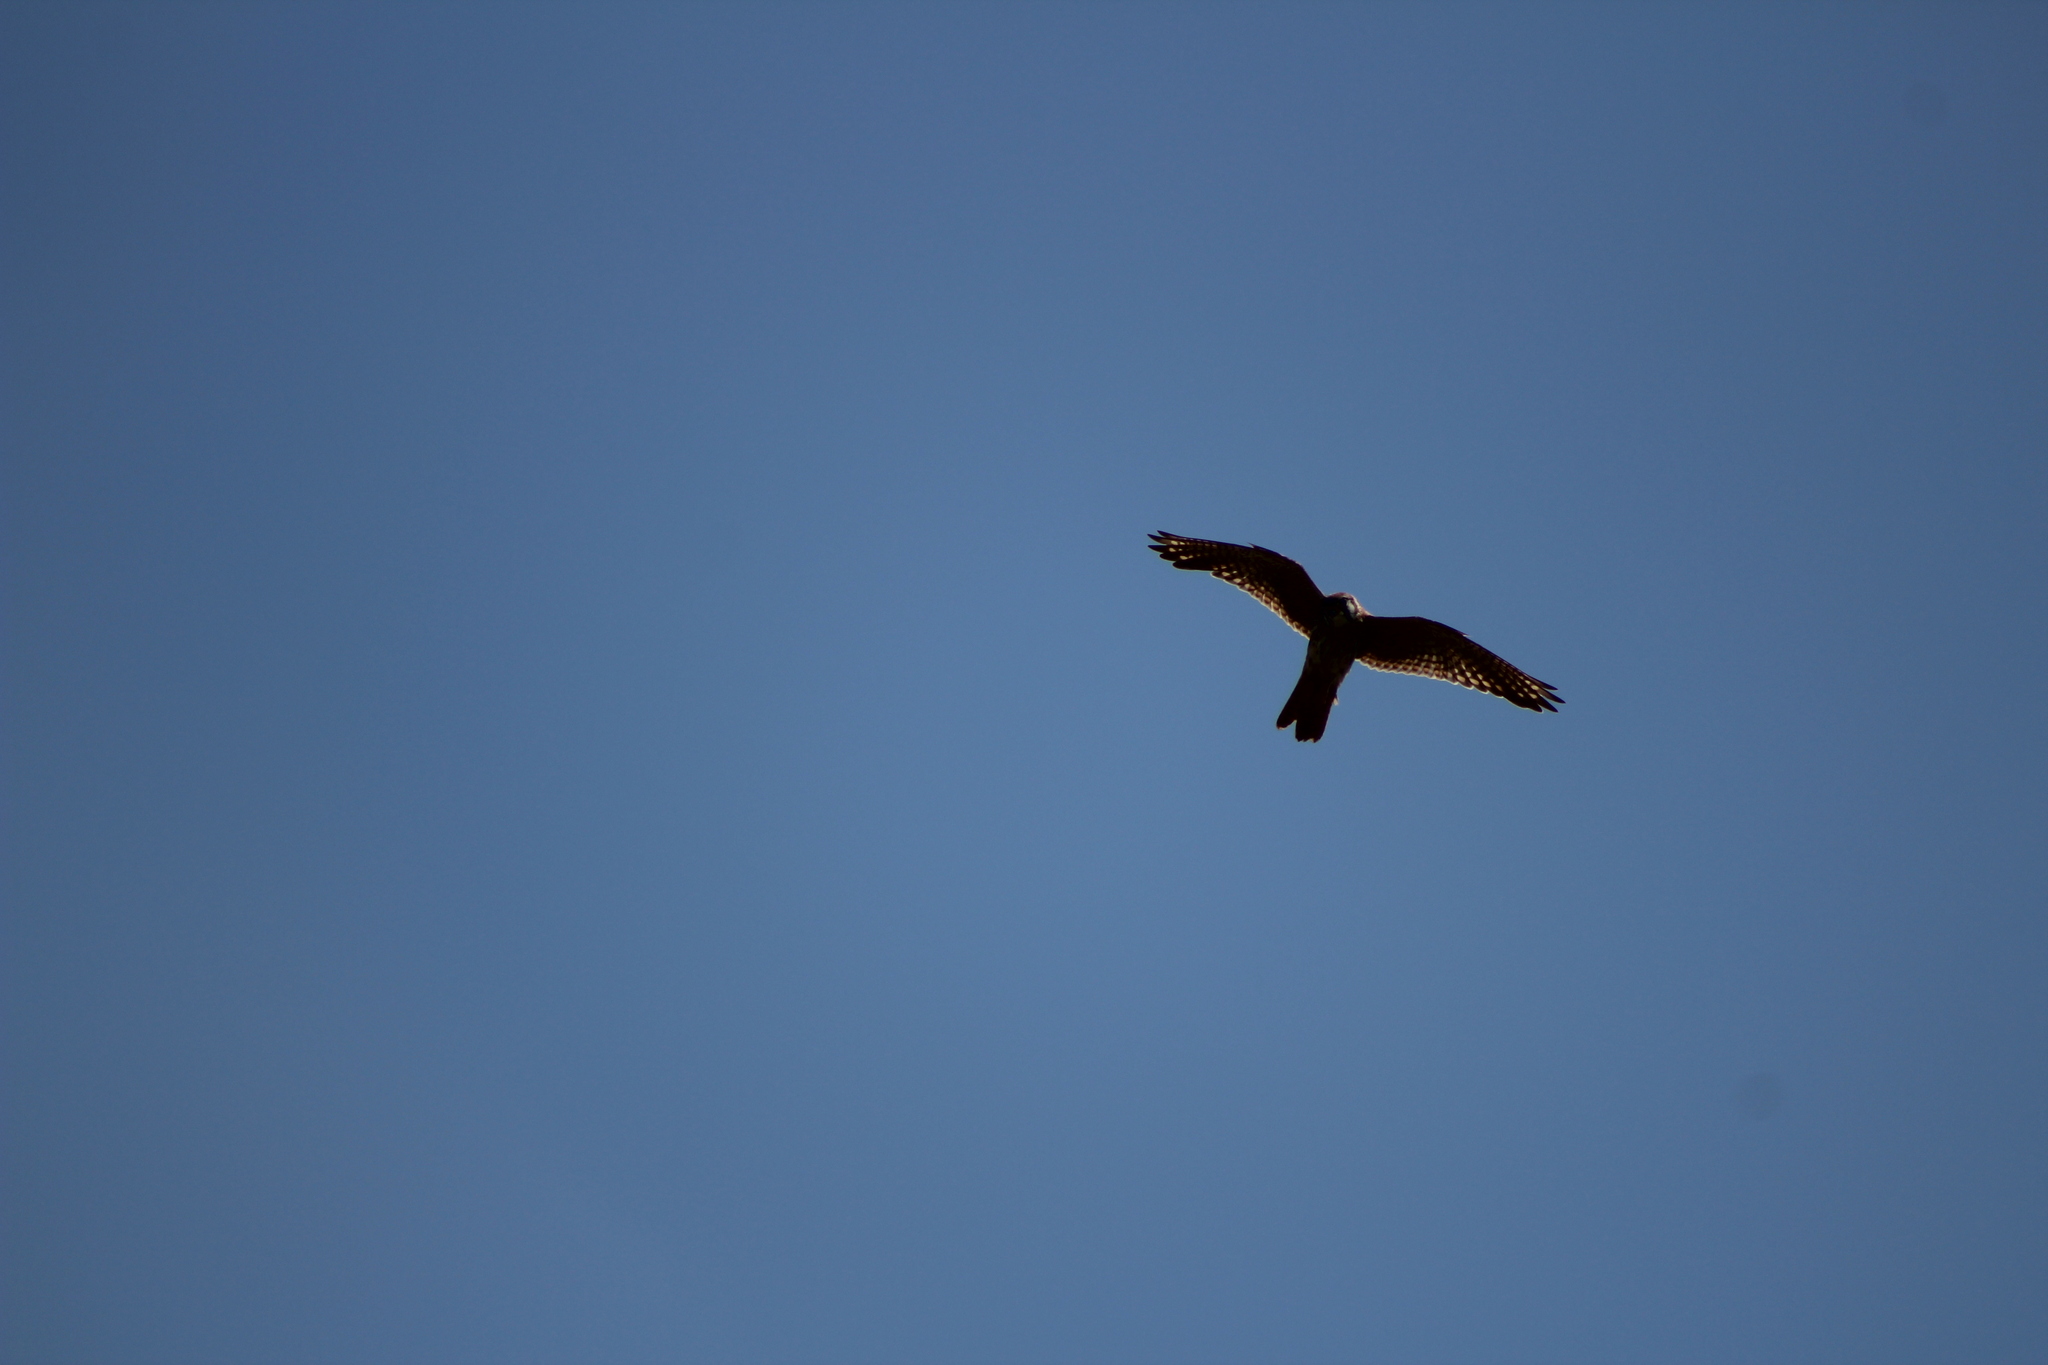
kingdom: Animalia
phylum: Chordata
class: Aves
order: Falconiformes
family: Falconidae
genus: Falco
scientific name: Falco sparverius
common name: American kestrel
